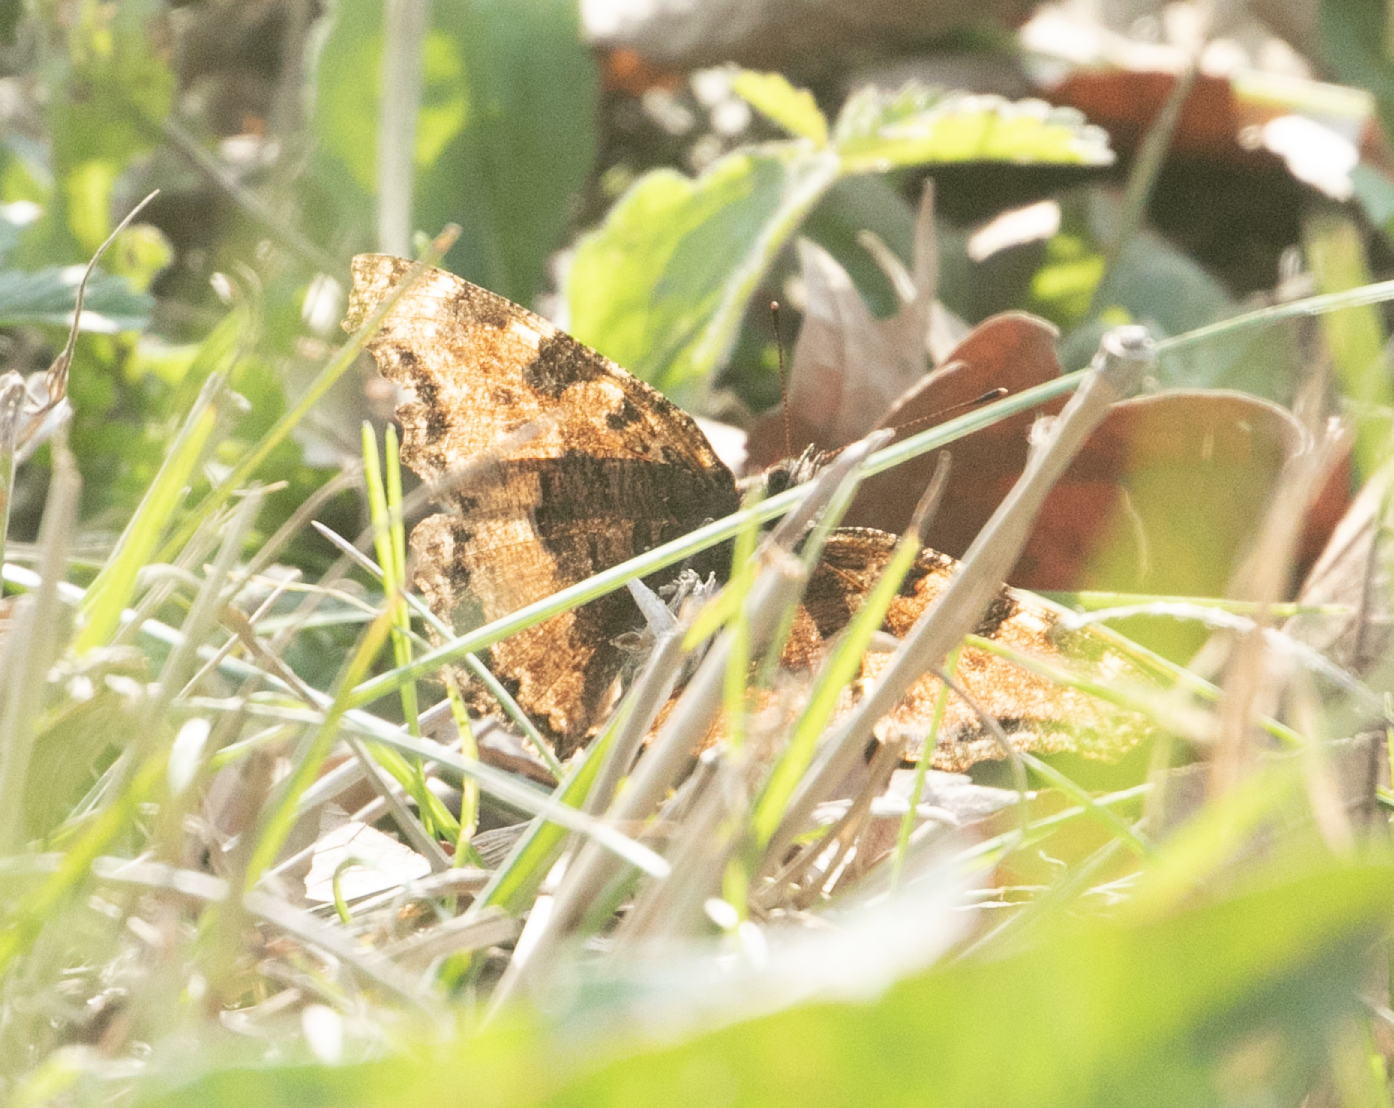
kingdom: Animalia
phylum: Arthropoda
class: Insecta
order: Lepidoptera
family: Nymphalidae
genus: Nymphalis
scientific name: Nymphalis polychloros
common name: Large tortoiseshell
